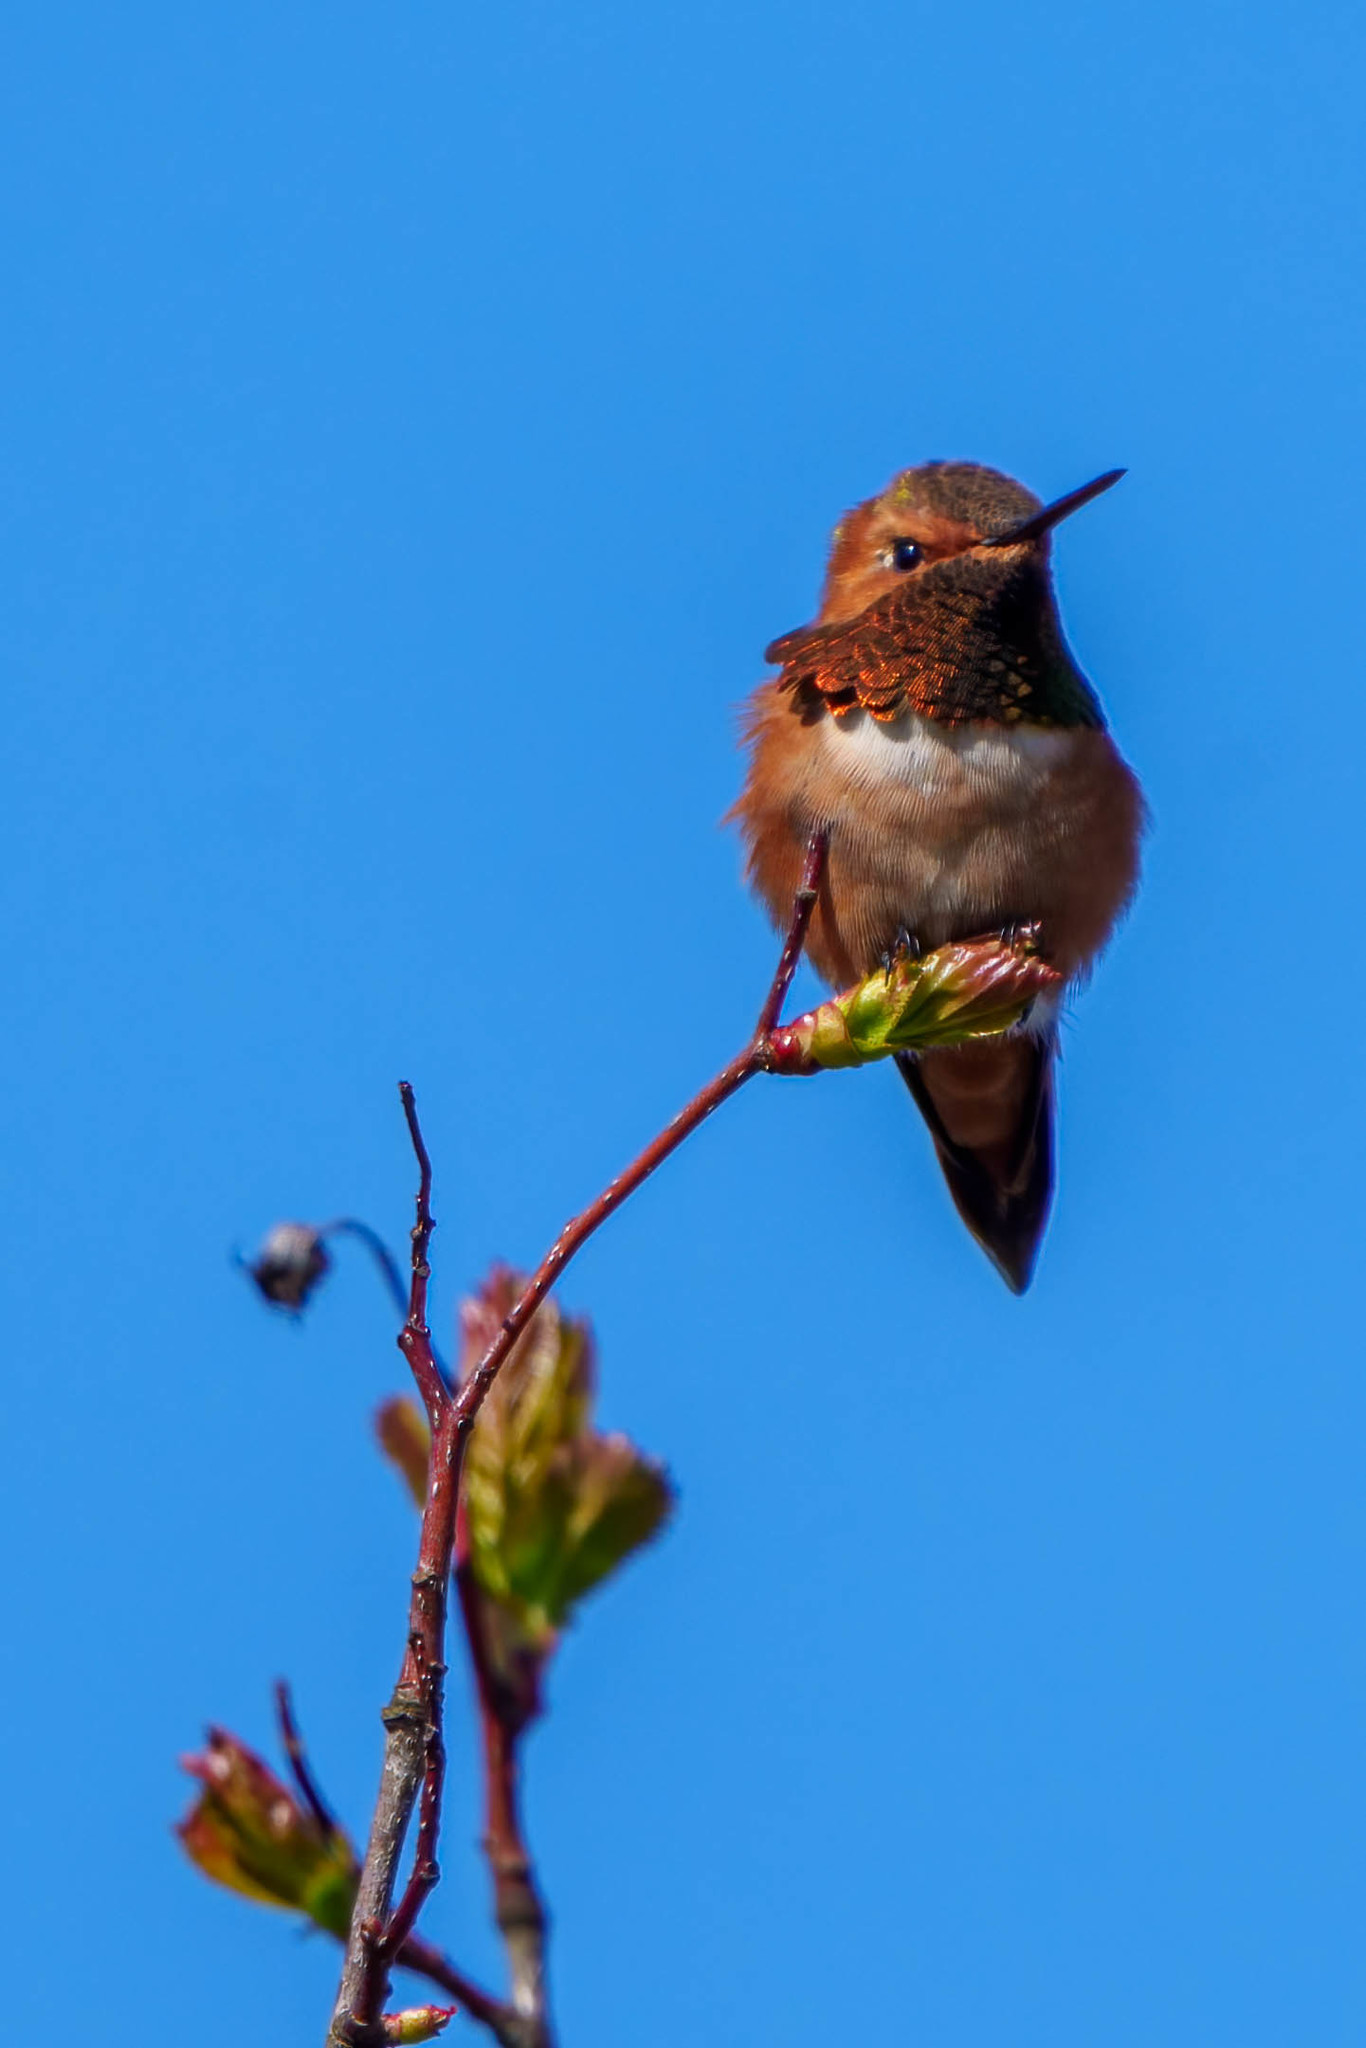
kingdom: Animalia
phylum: Chordata
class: Aves
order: Apodiformes
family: Trochilidae
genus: Selasphorus
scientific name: Selasphorus rufus
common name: Rufous hummingbird
